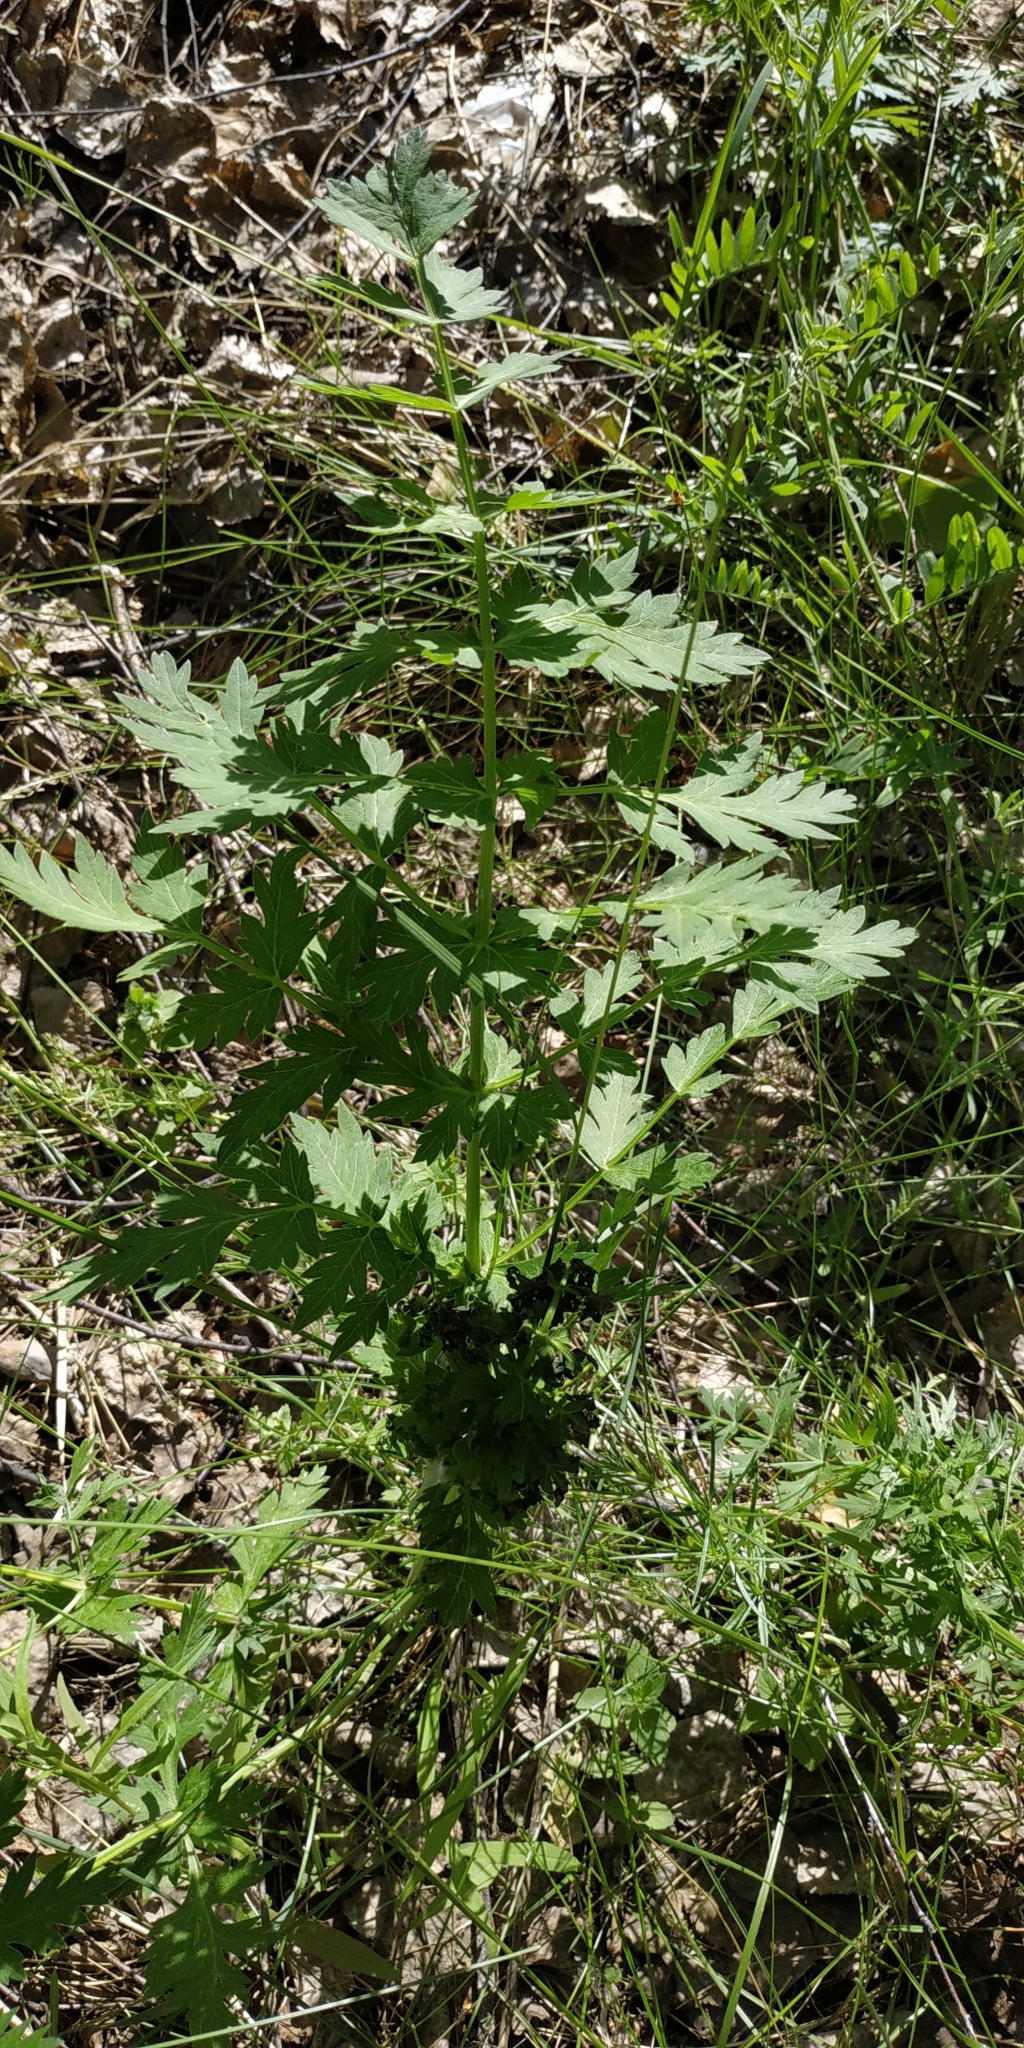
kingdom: Plantae
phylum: Tracheophyta
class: Magnoliopsida
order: Apiales
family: Apiaceae
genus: Seseli
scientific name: Seseli libanotis
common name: Mooncarrot
